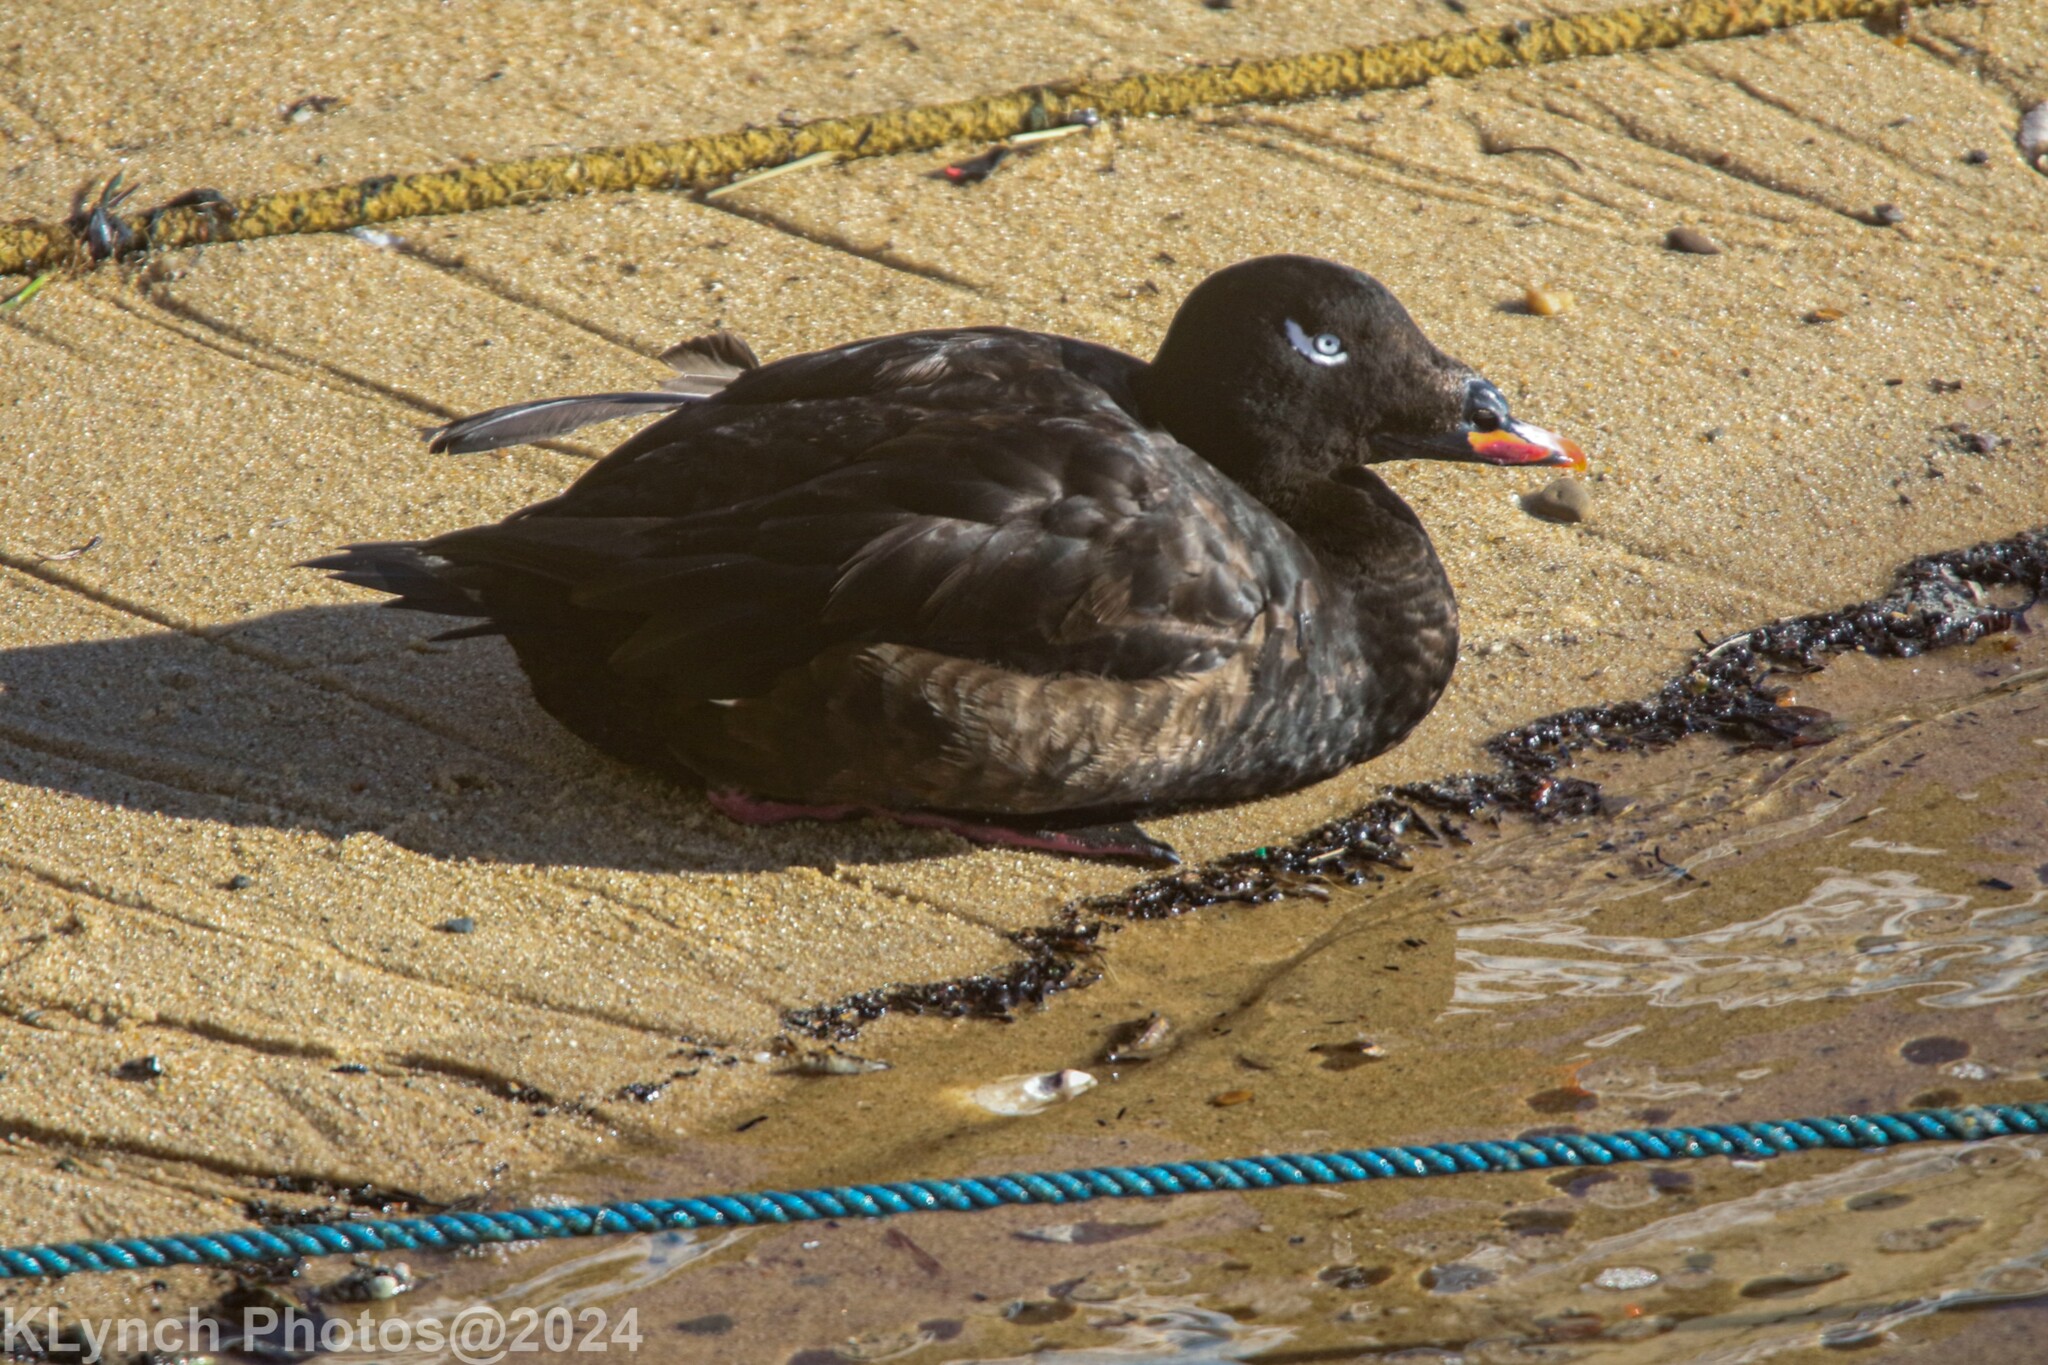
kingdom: Animalia
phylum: Chordata
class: Aves
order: Anseriformes
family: Anatidae
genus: Melanitta
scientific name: Melanitta deglandi
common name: White-winged scoter
